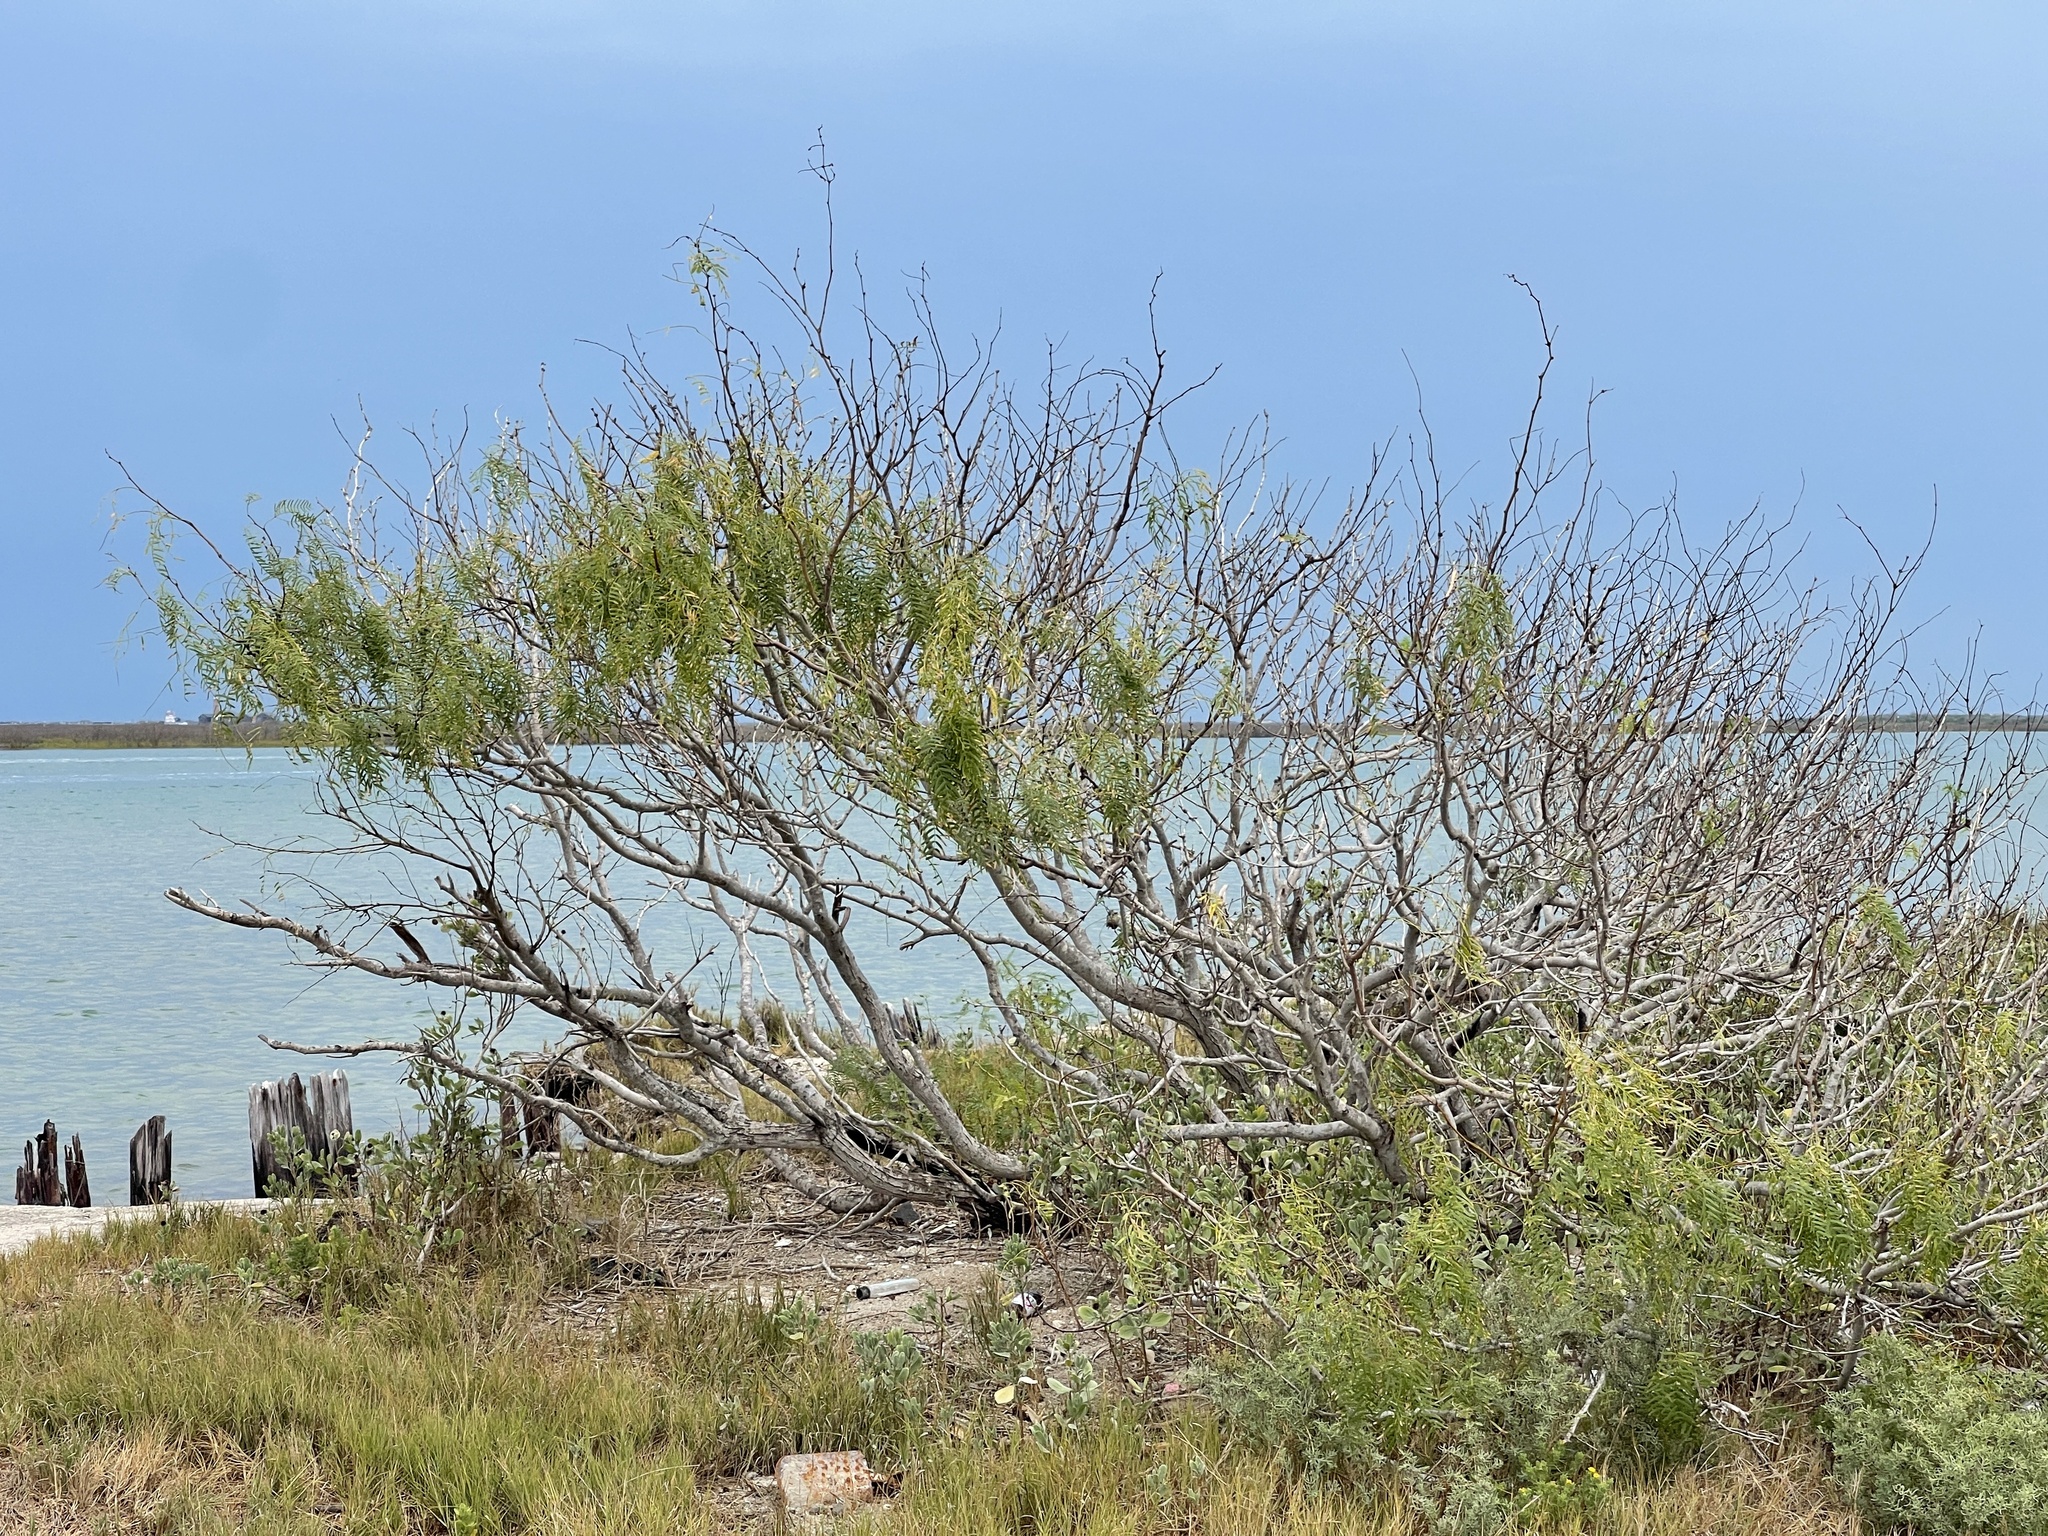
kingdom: Plantae
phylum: Tracheophyta
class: Magnoliopsida
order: Fabales
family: Fabaceae
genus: Prosopis
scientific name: Prosopis glandulosa
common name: Honey mesquite
